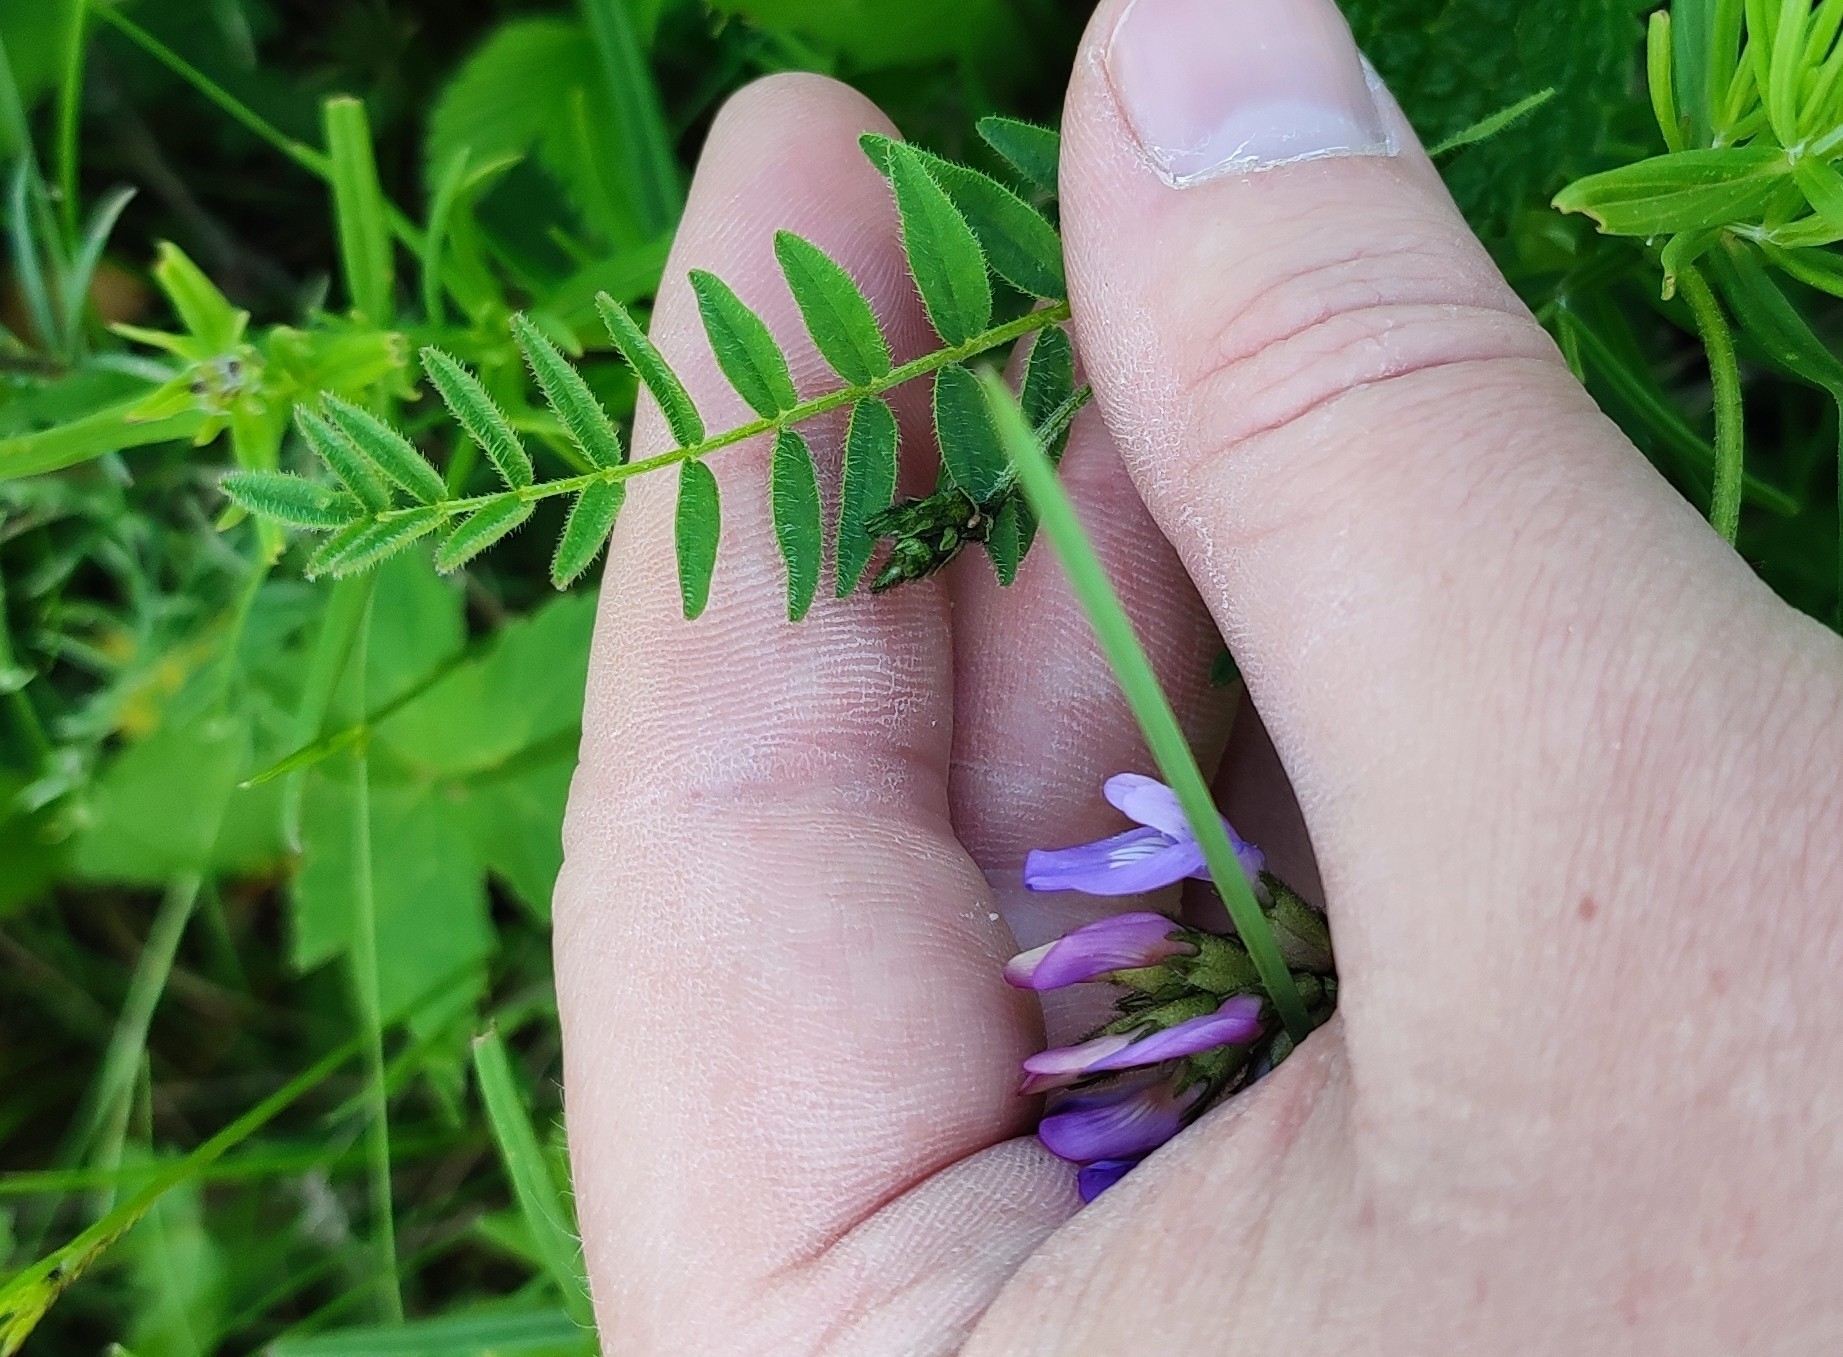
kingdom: Plantae
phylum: Tracheophyta
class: Magnoliopsida
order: Fabales
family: Fabaceae
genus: Astragalus
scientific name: Astragalus danicus
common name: Purple milk-vetch
